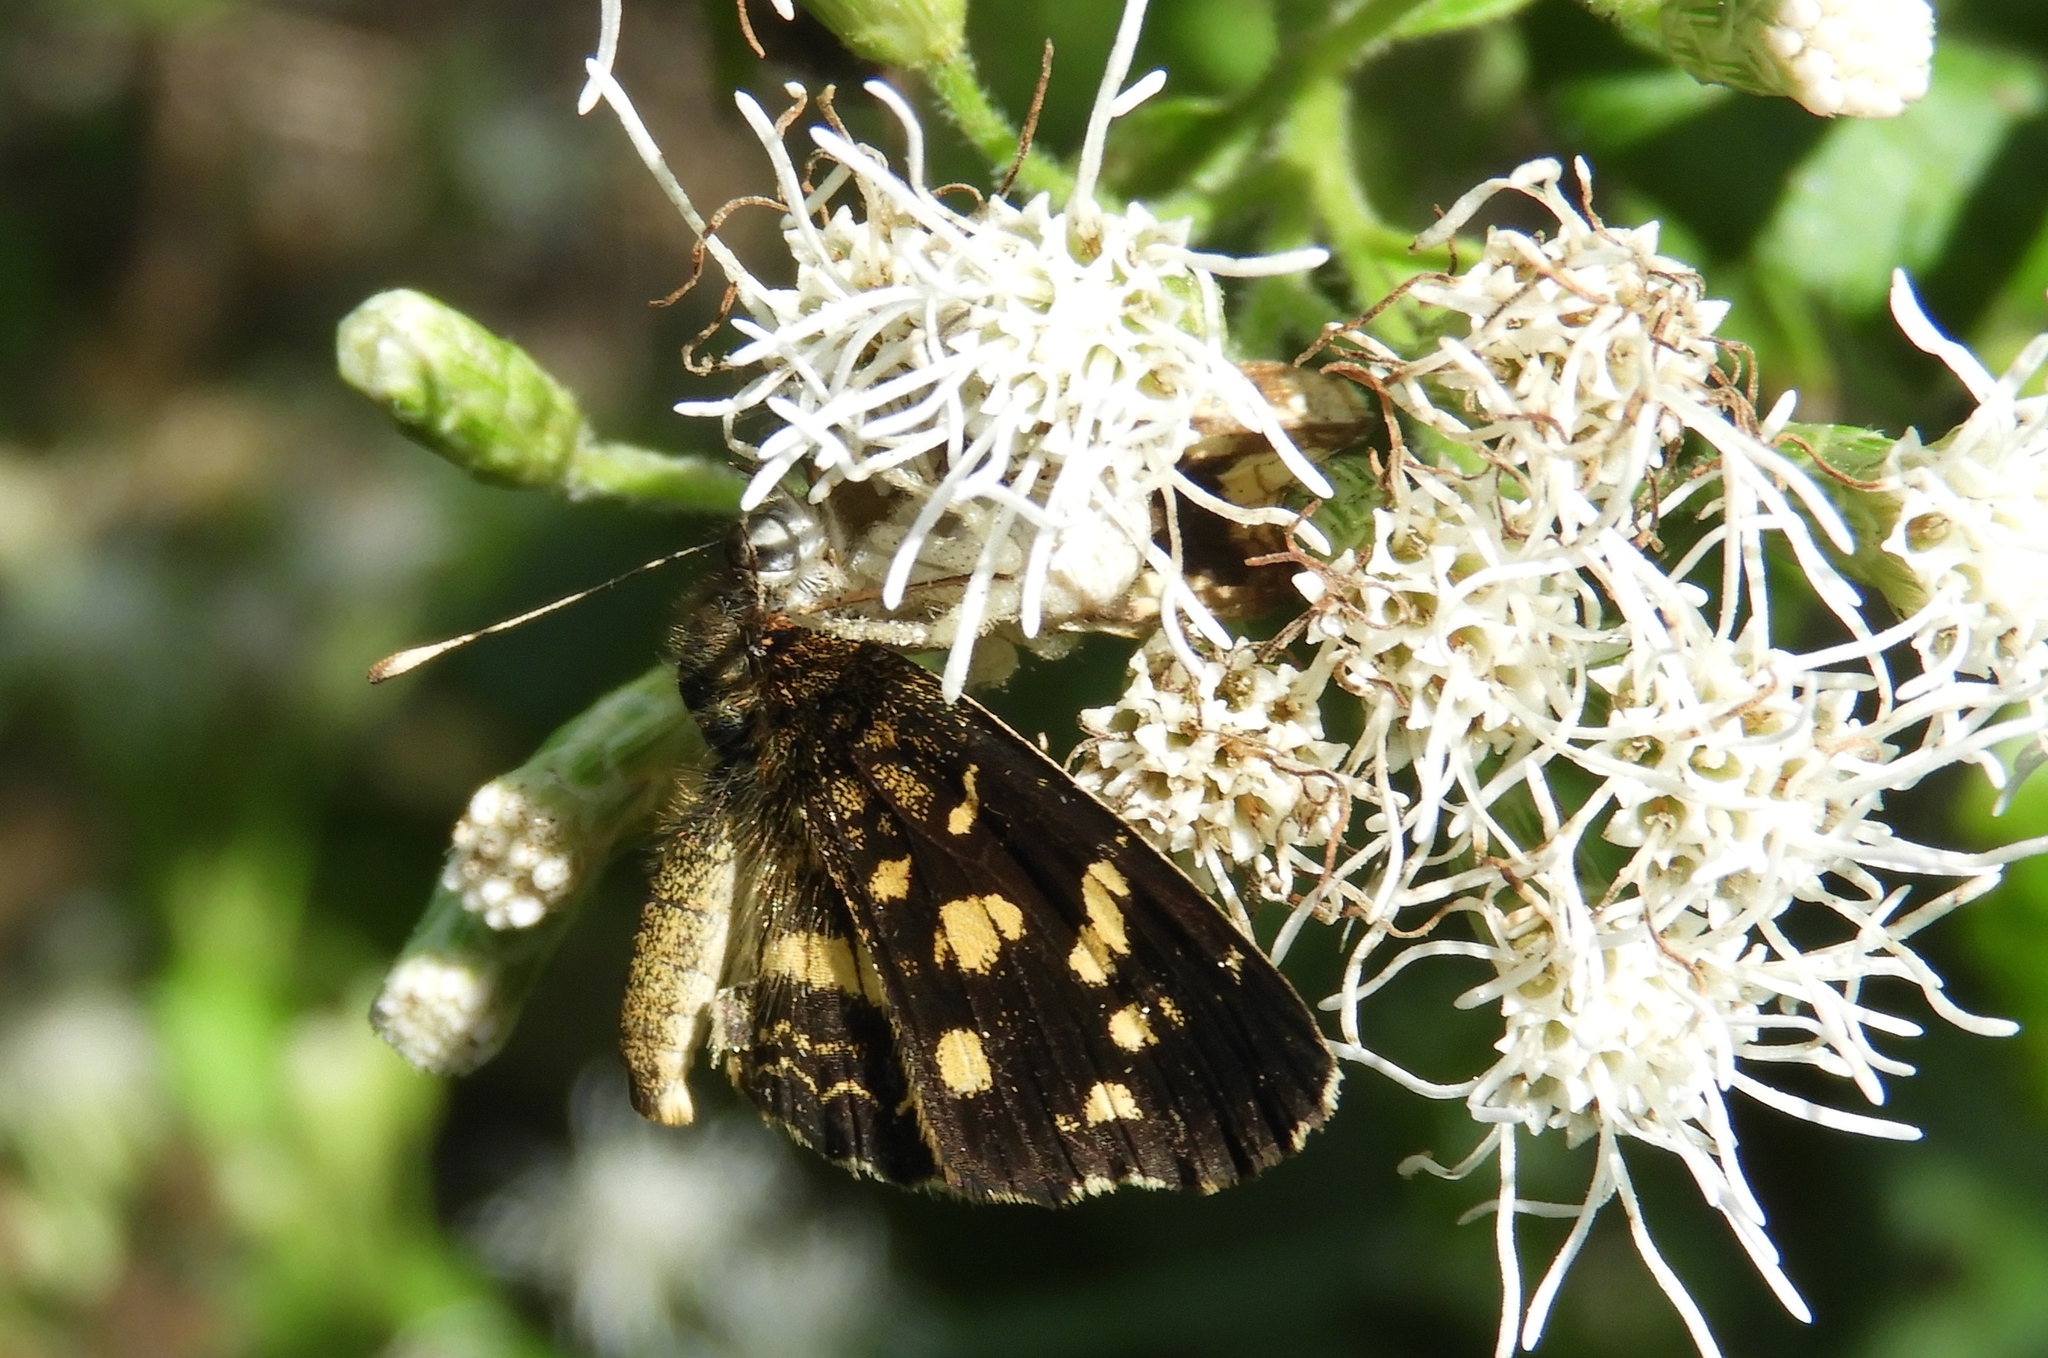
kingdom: Animalia
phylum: Arthropoda
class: Insecta
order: Lepidoptera
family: Nymphalidae
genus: Anthanassa
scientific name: Anthanassa tulcis
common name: Pale-banded crescent
